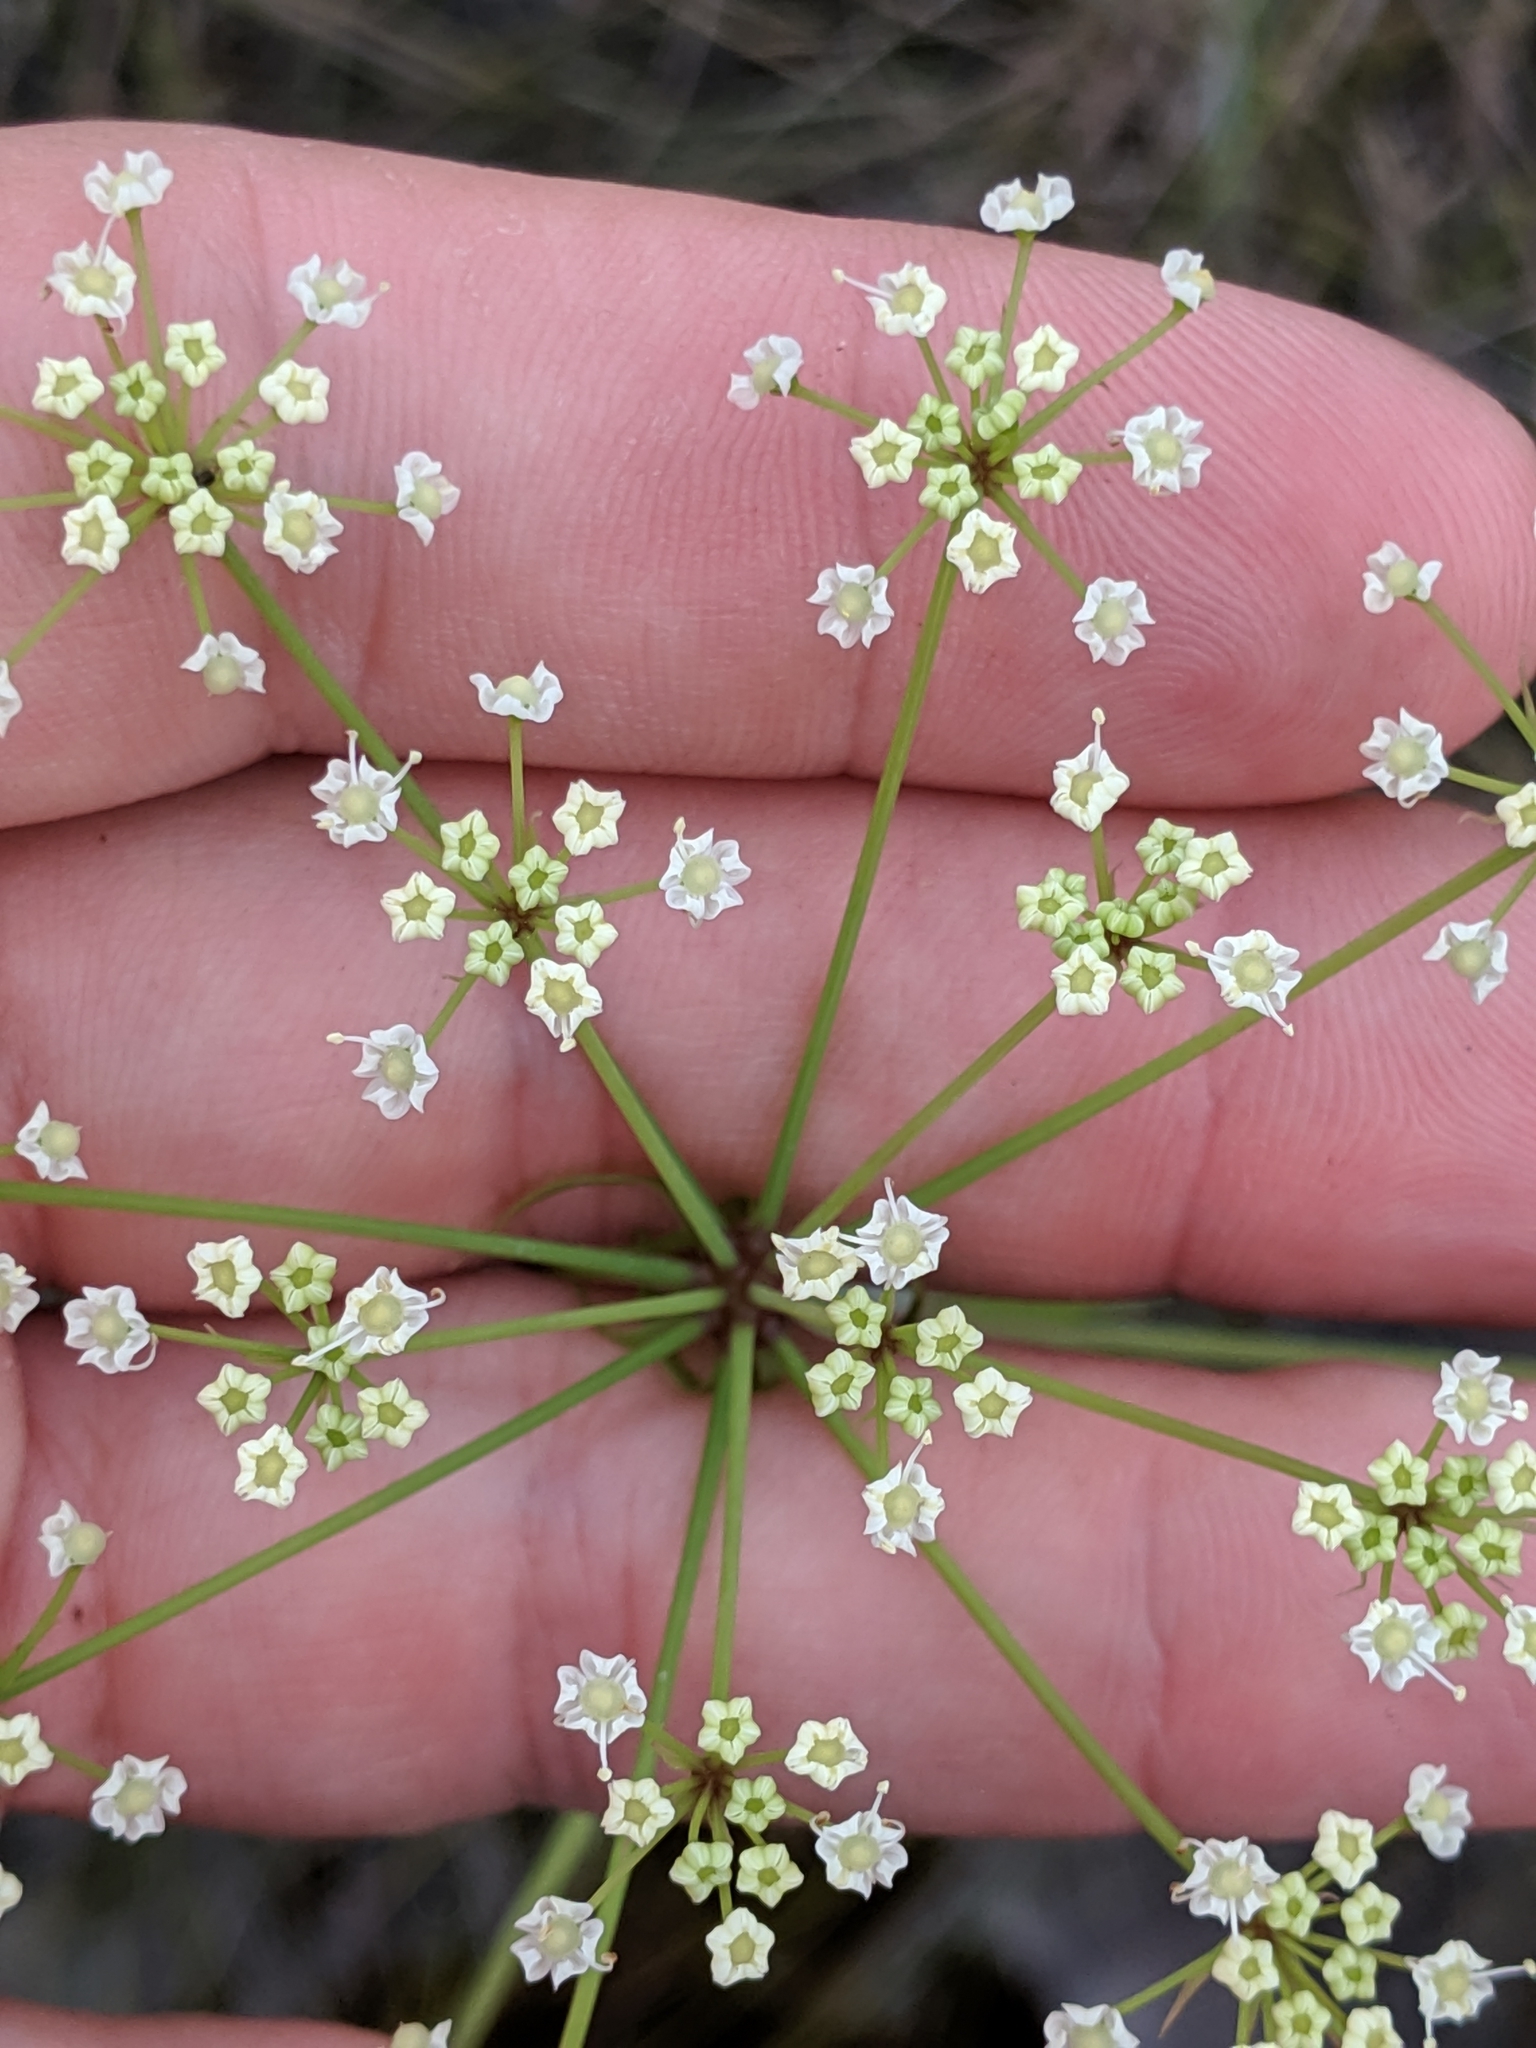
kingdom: Plantae
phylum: Tracheophyta
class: Magnoliopsida
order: Apiales
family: Apiaceae
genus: Tiedemannia
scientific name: Tiedemannia filiformis
